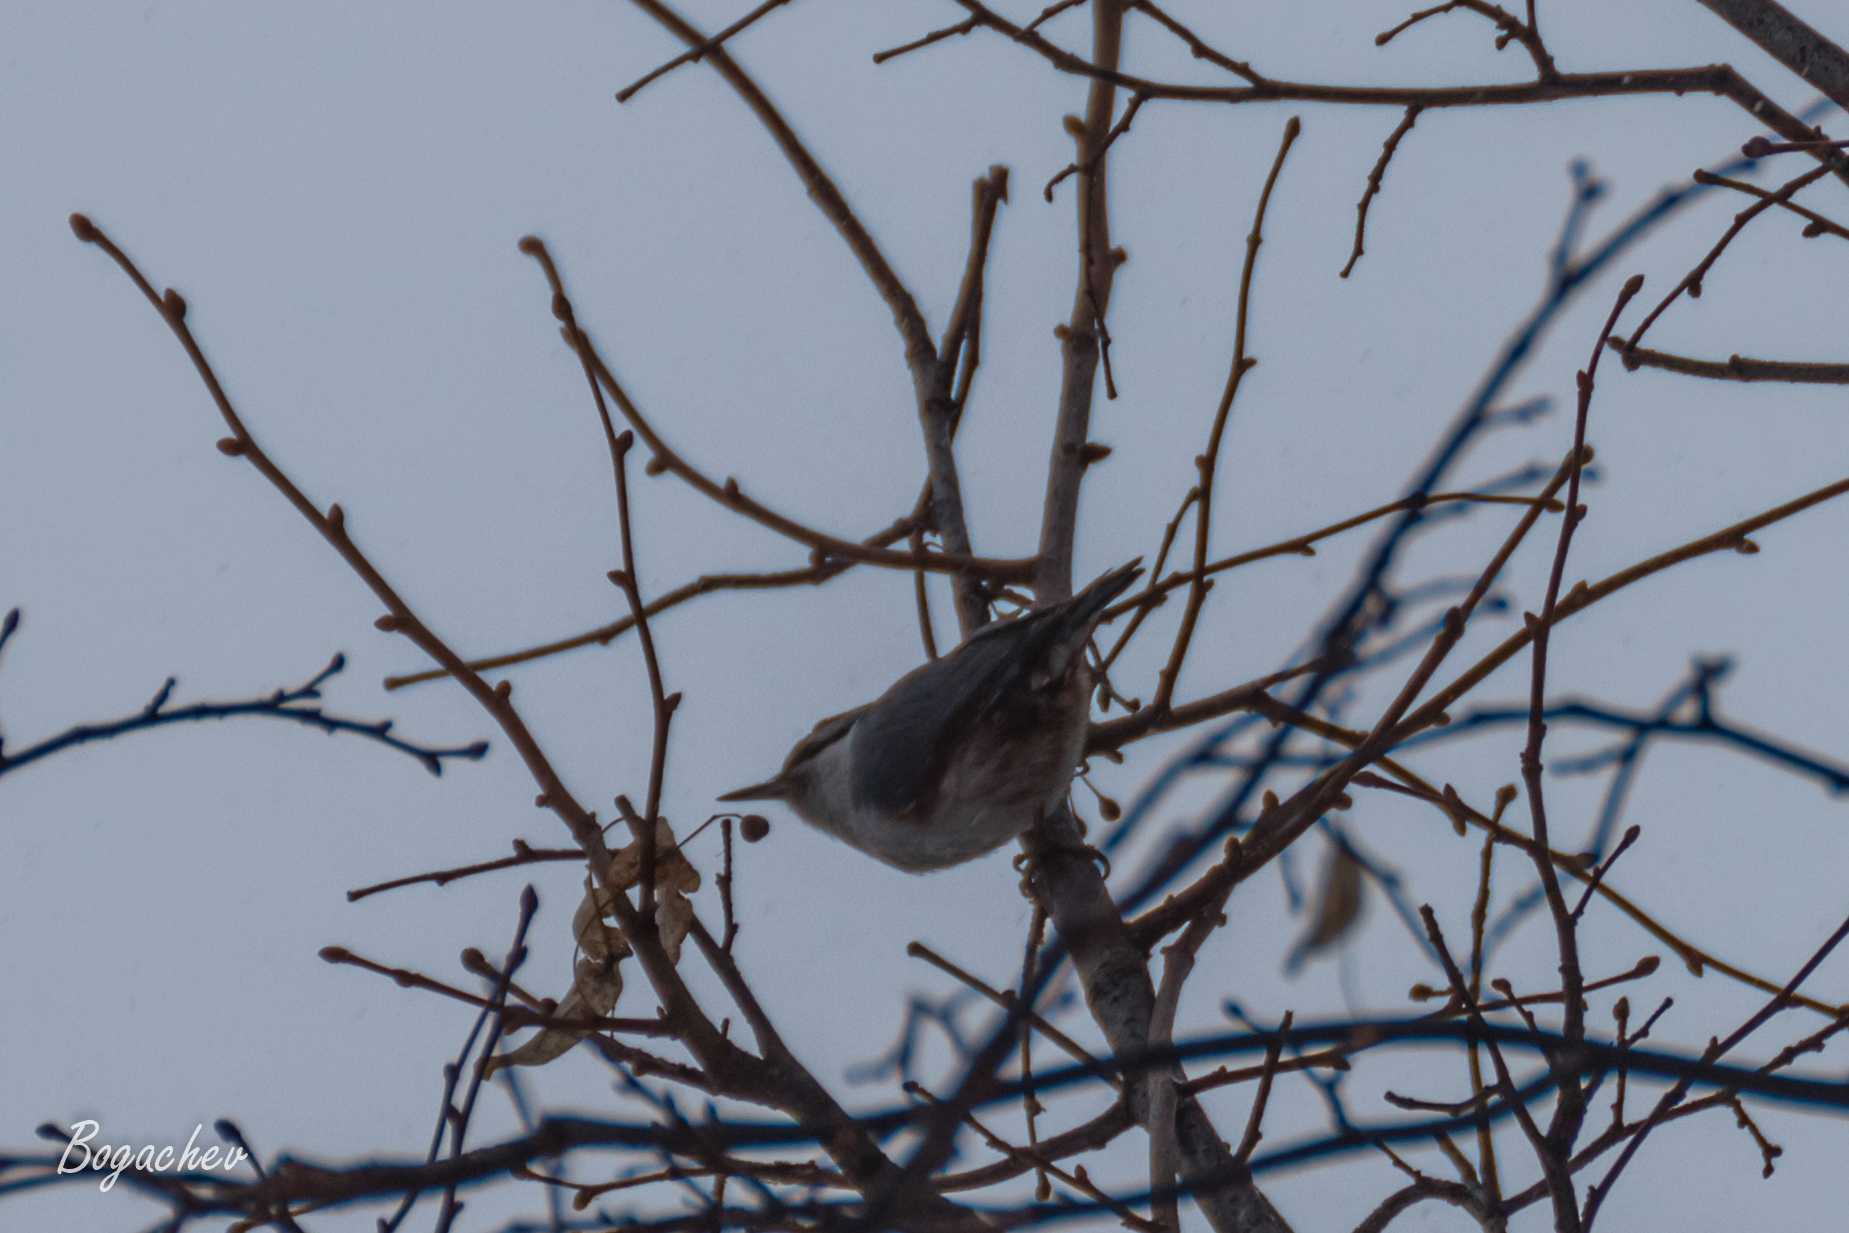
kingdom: Animalia
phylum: Chordata
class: Aves
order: Passeriformes
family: Sittidae
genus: Sitta
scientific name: Sitta europaea
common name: Eurasian nuthatch
